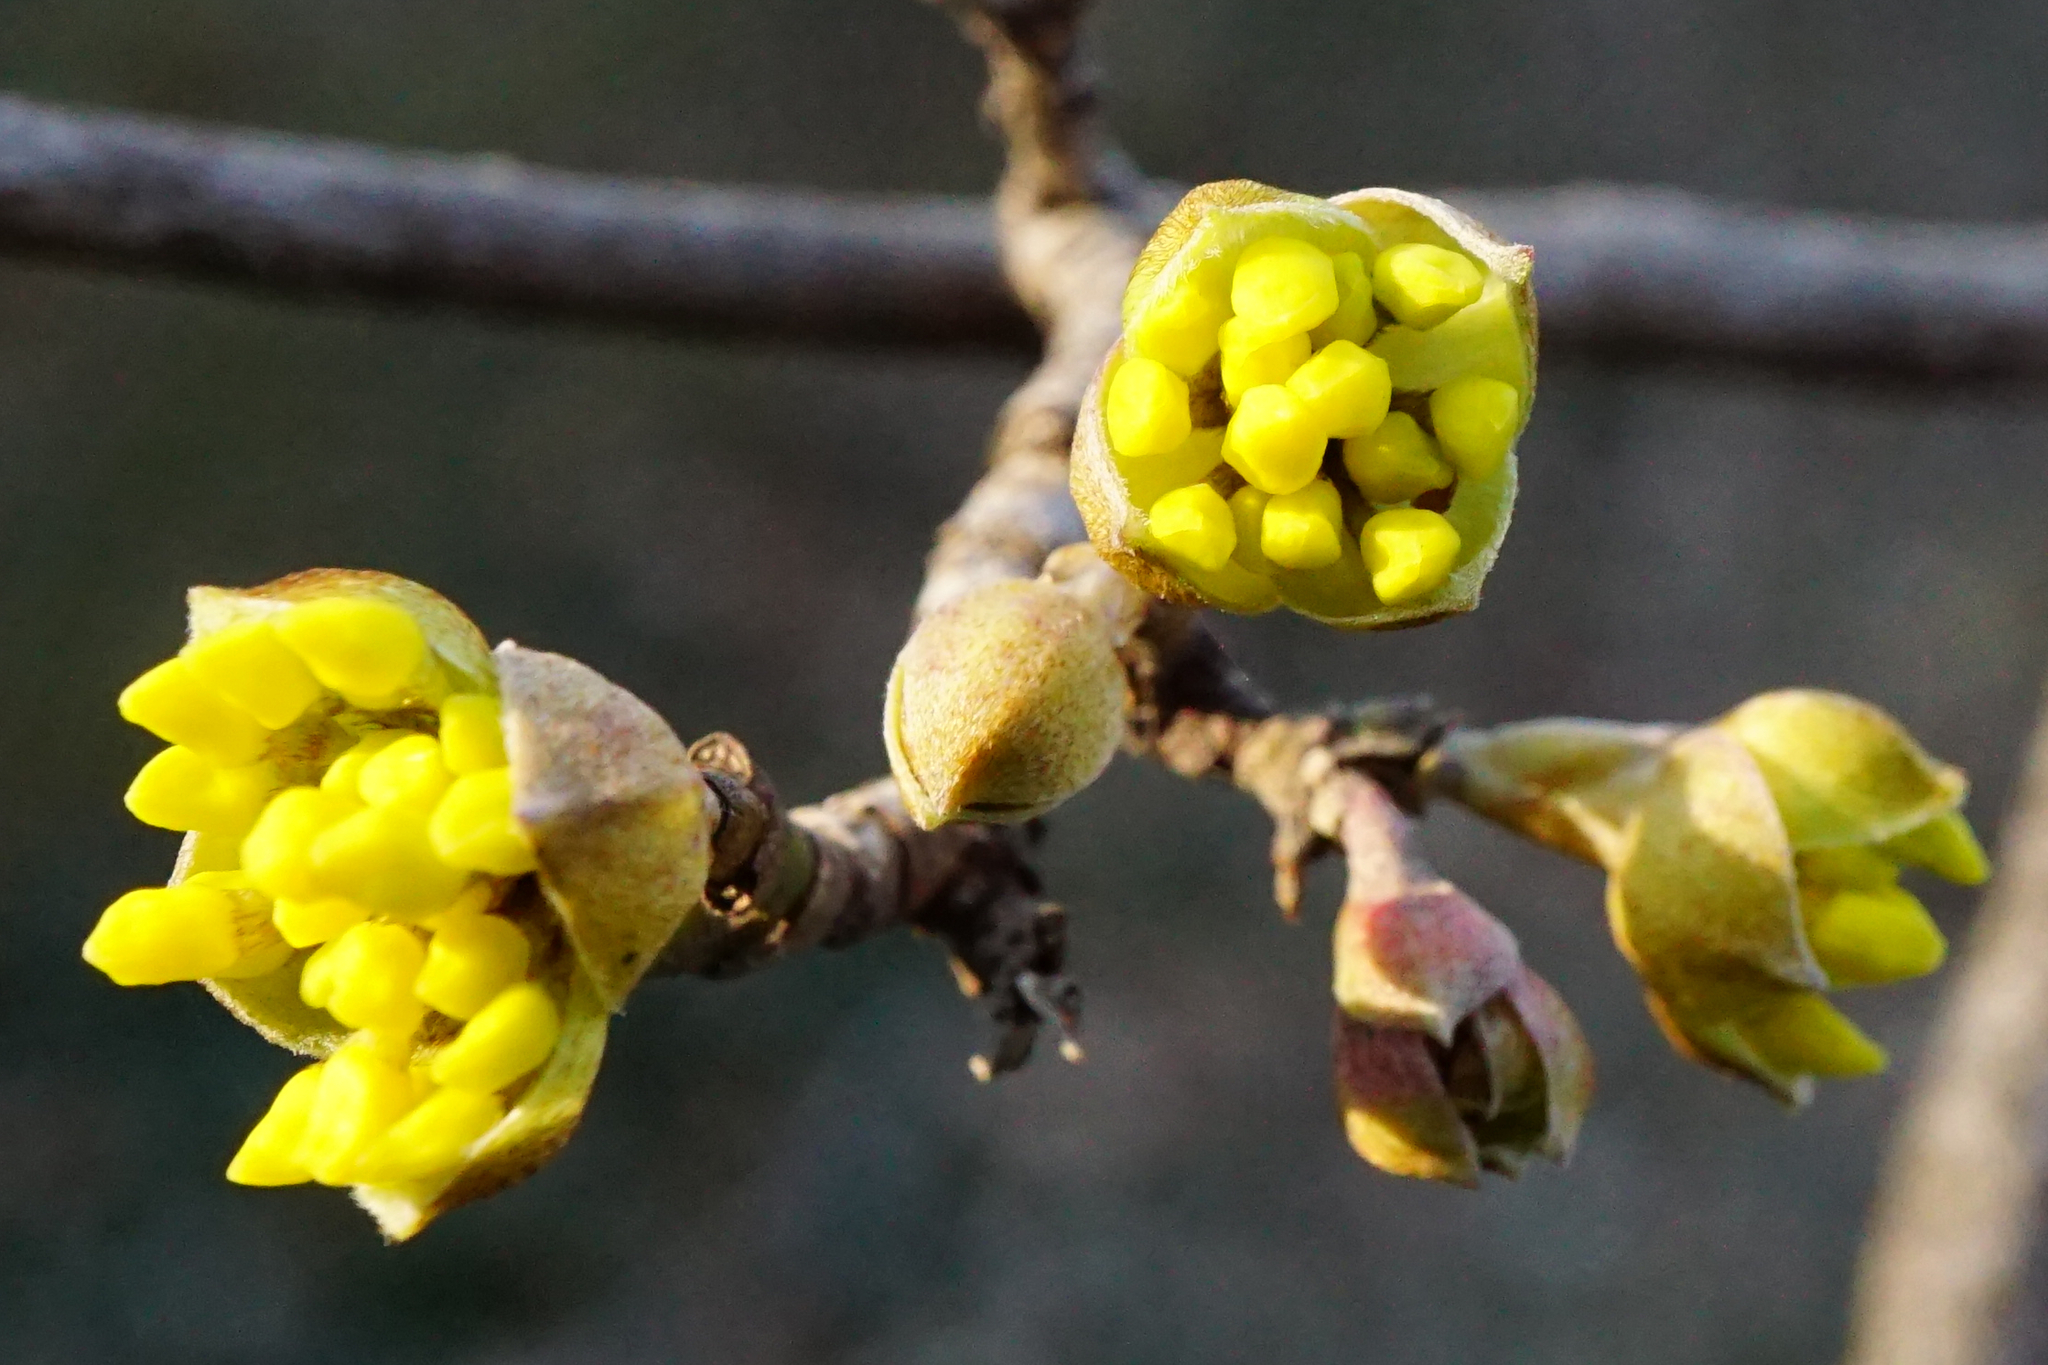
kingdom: Plantae
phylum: Tracheophyta
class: Magnoliopsida
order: Cornales
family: Cornaceae
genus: Cornus
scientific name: Cornus mas
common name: Cornelian-cherry
